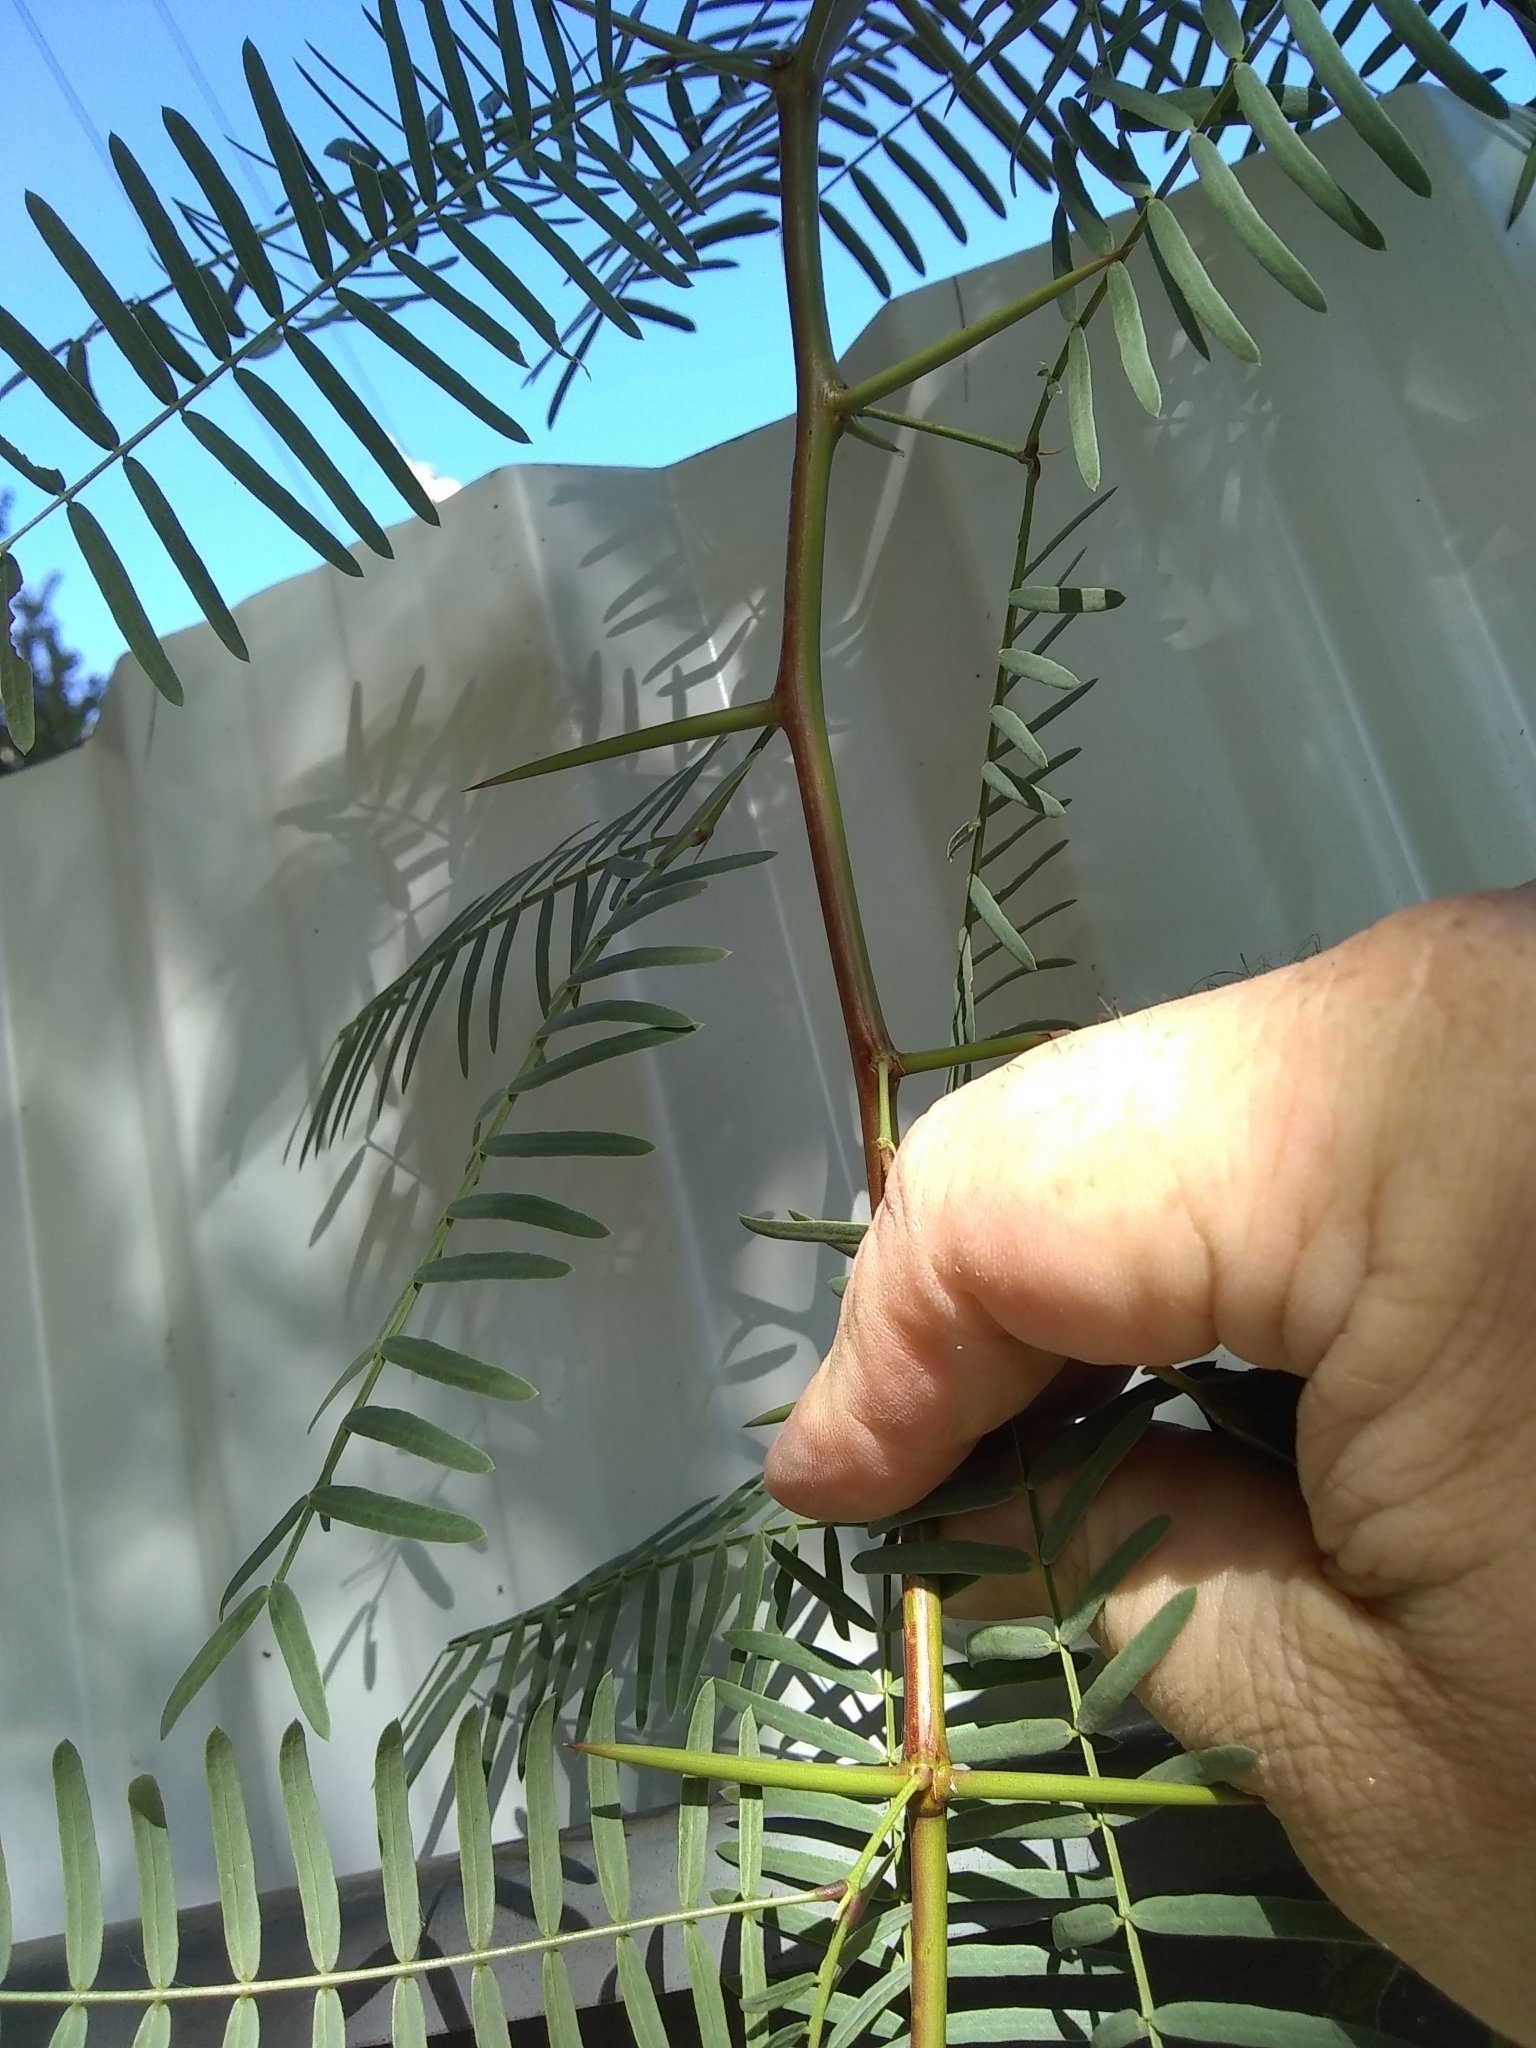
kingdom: Plantae
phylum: Tracheophyta
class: Magnoliopsida
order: Fabales
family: Fabaceae
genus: Prosopis
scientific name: Prosopis glandulosa
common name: Honey mesquite
